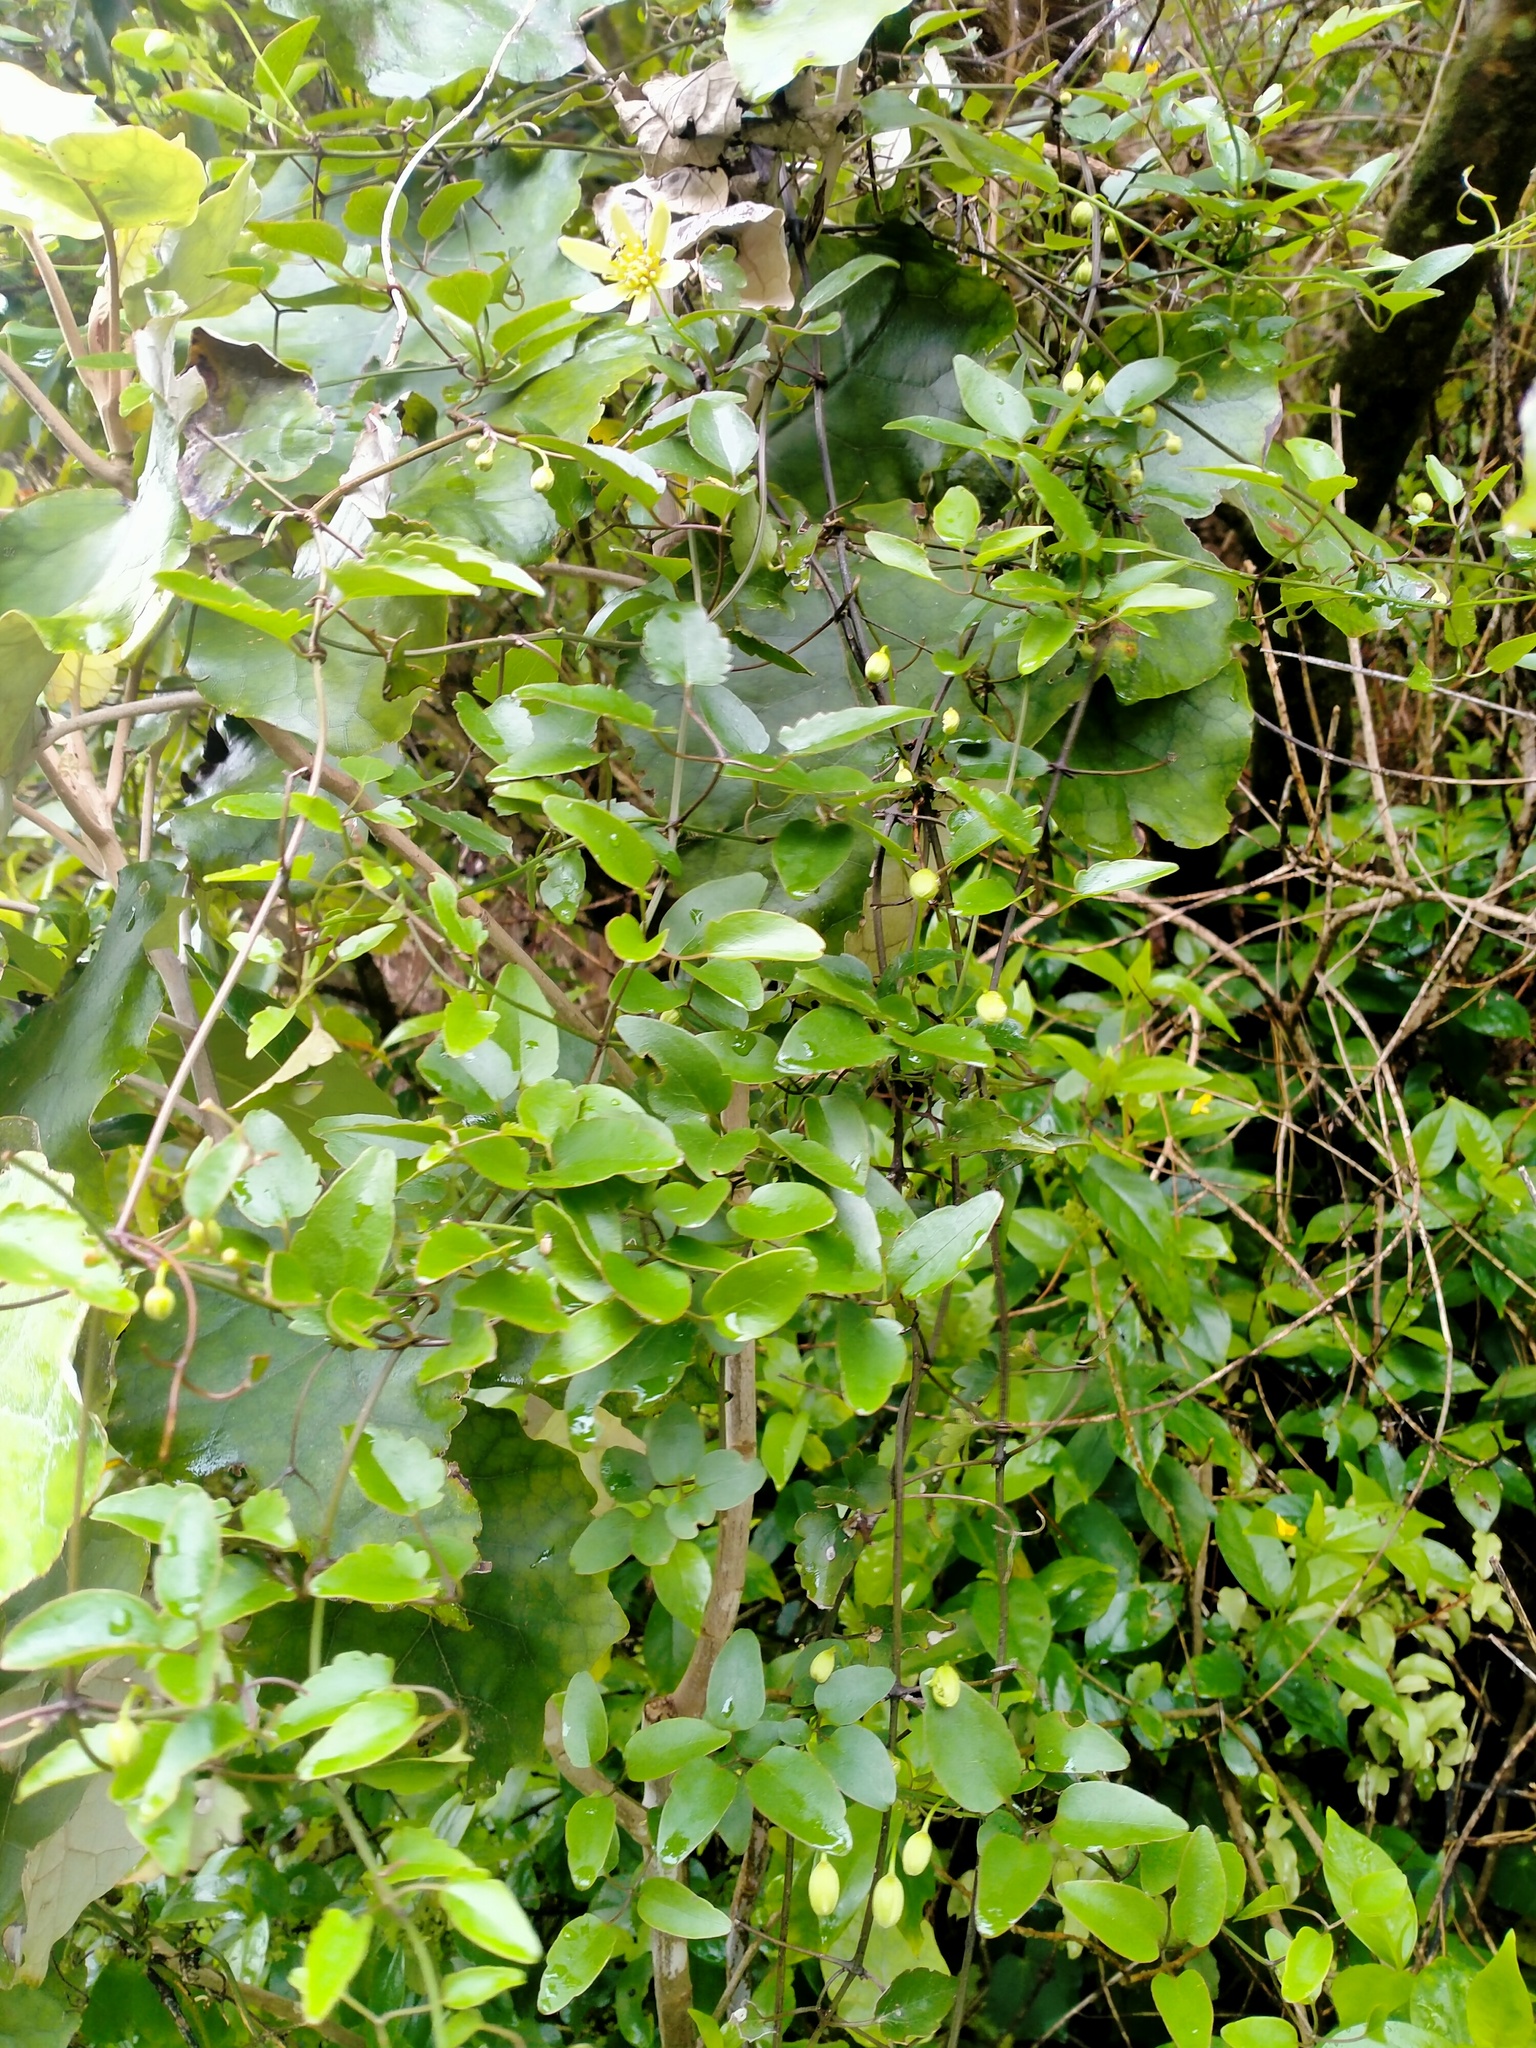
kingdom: Plantae
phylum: Tracheophyta
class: Magnoliopsida
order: Ranunculales
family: Ranunculaceae
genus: Clematis
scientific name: Clematis forsteri
